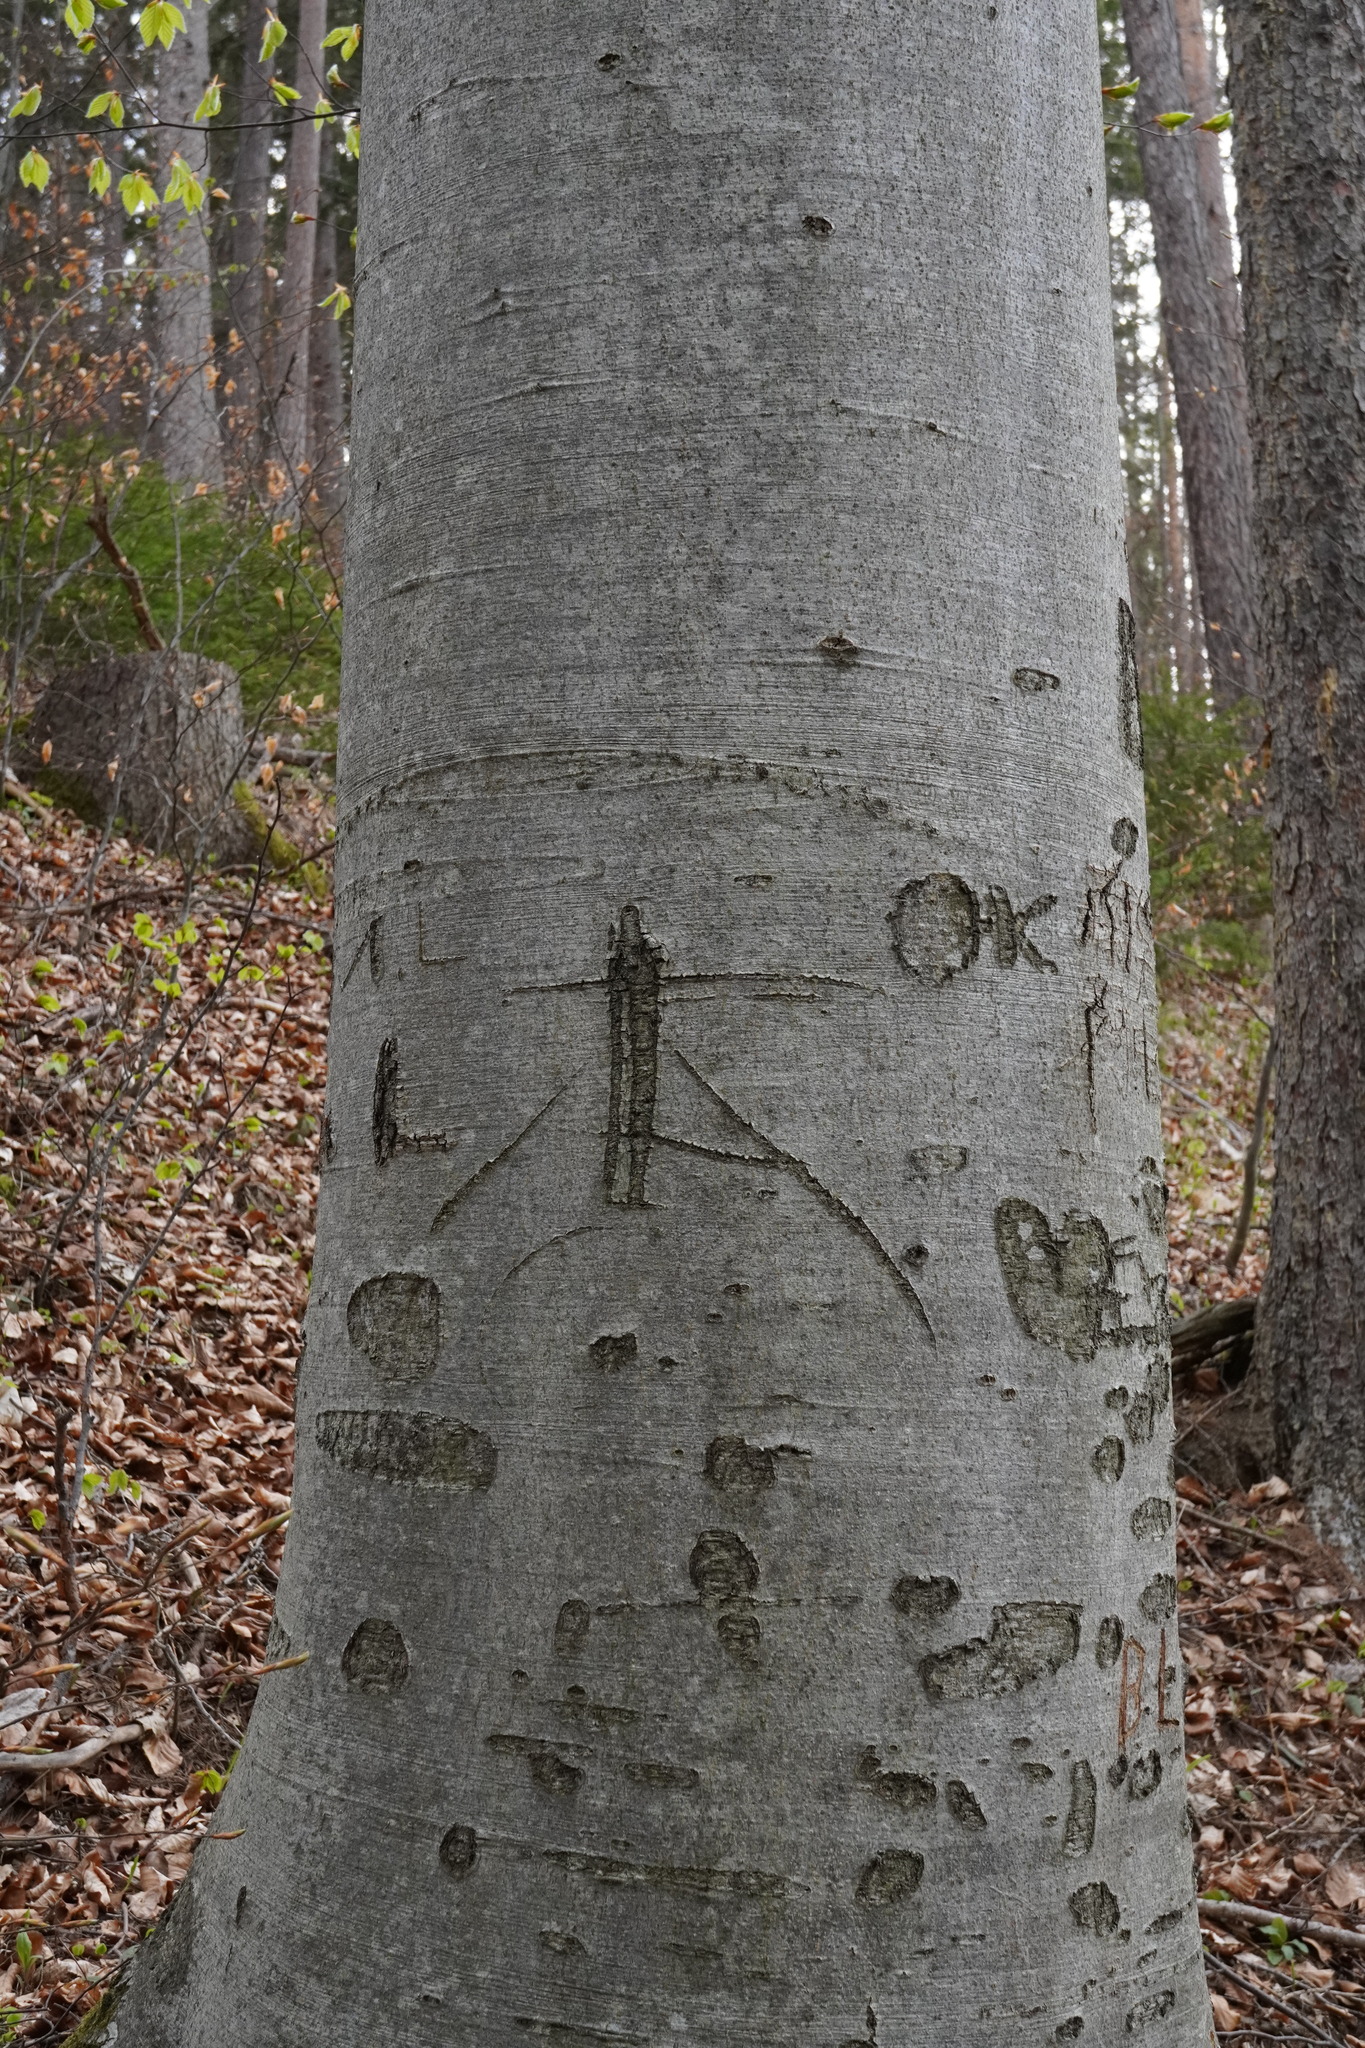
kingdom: Plantae
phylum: Tracheophyta
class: Magnoliopsida
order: Fagales
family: Fagaceae
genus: Fagus
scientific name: Fagus sylvatica
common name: Beech
